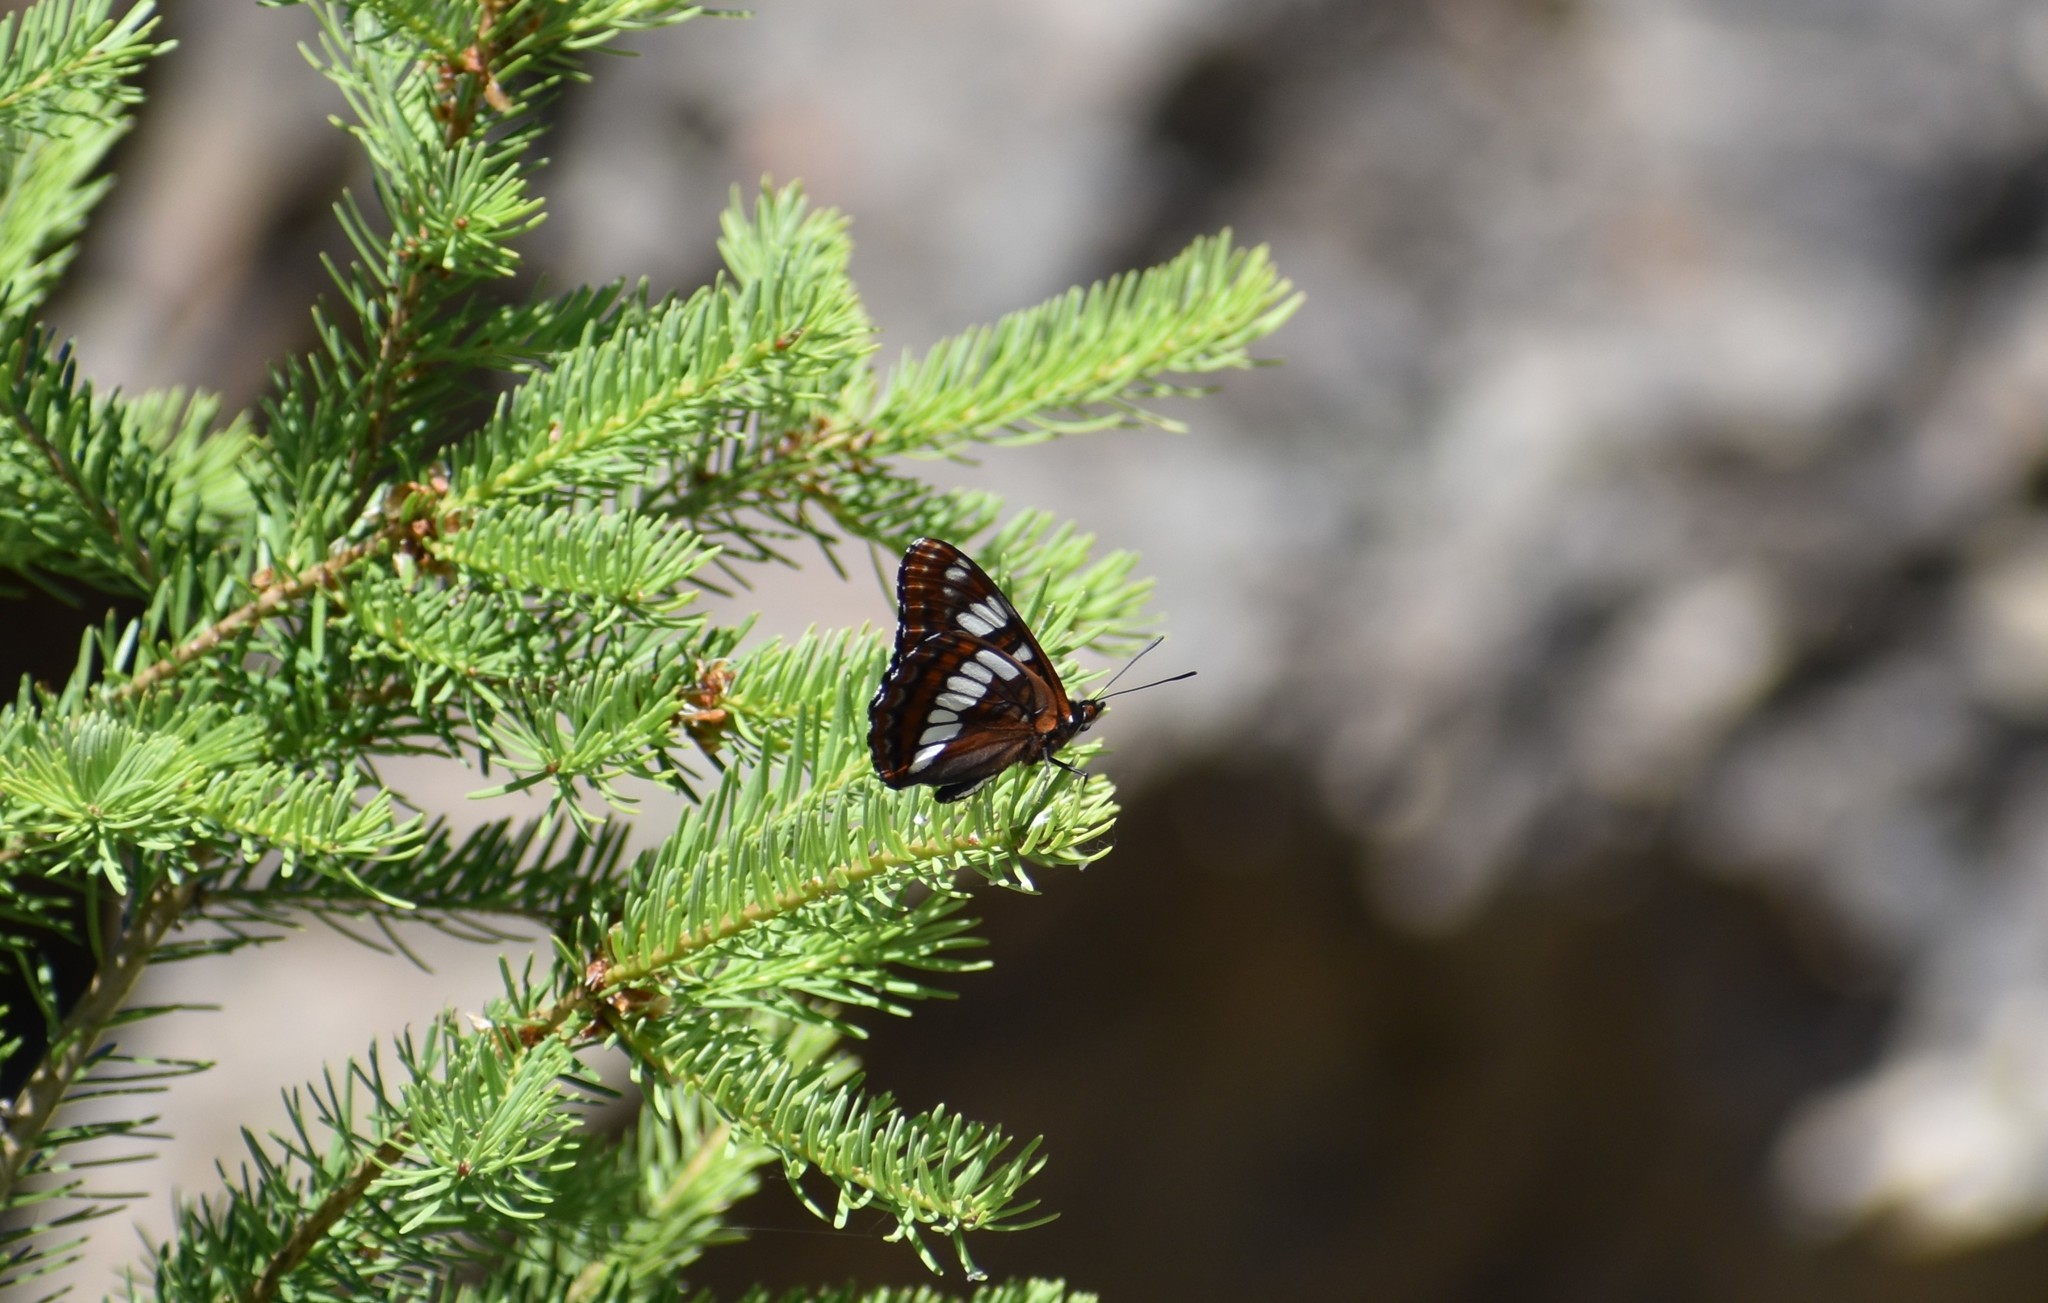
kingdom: Animalia
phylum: Arthropoda
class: Insecta
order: Lepidoptera
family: Nymphalidae
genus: Limenitis
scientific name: Limenitis lorquini
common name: Lorquin's admiral
